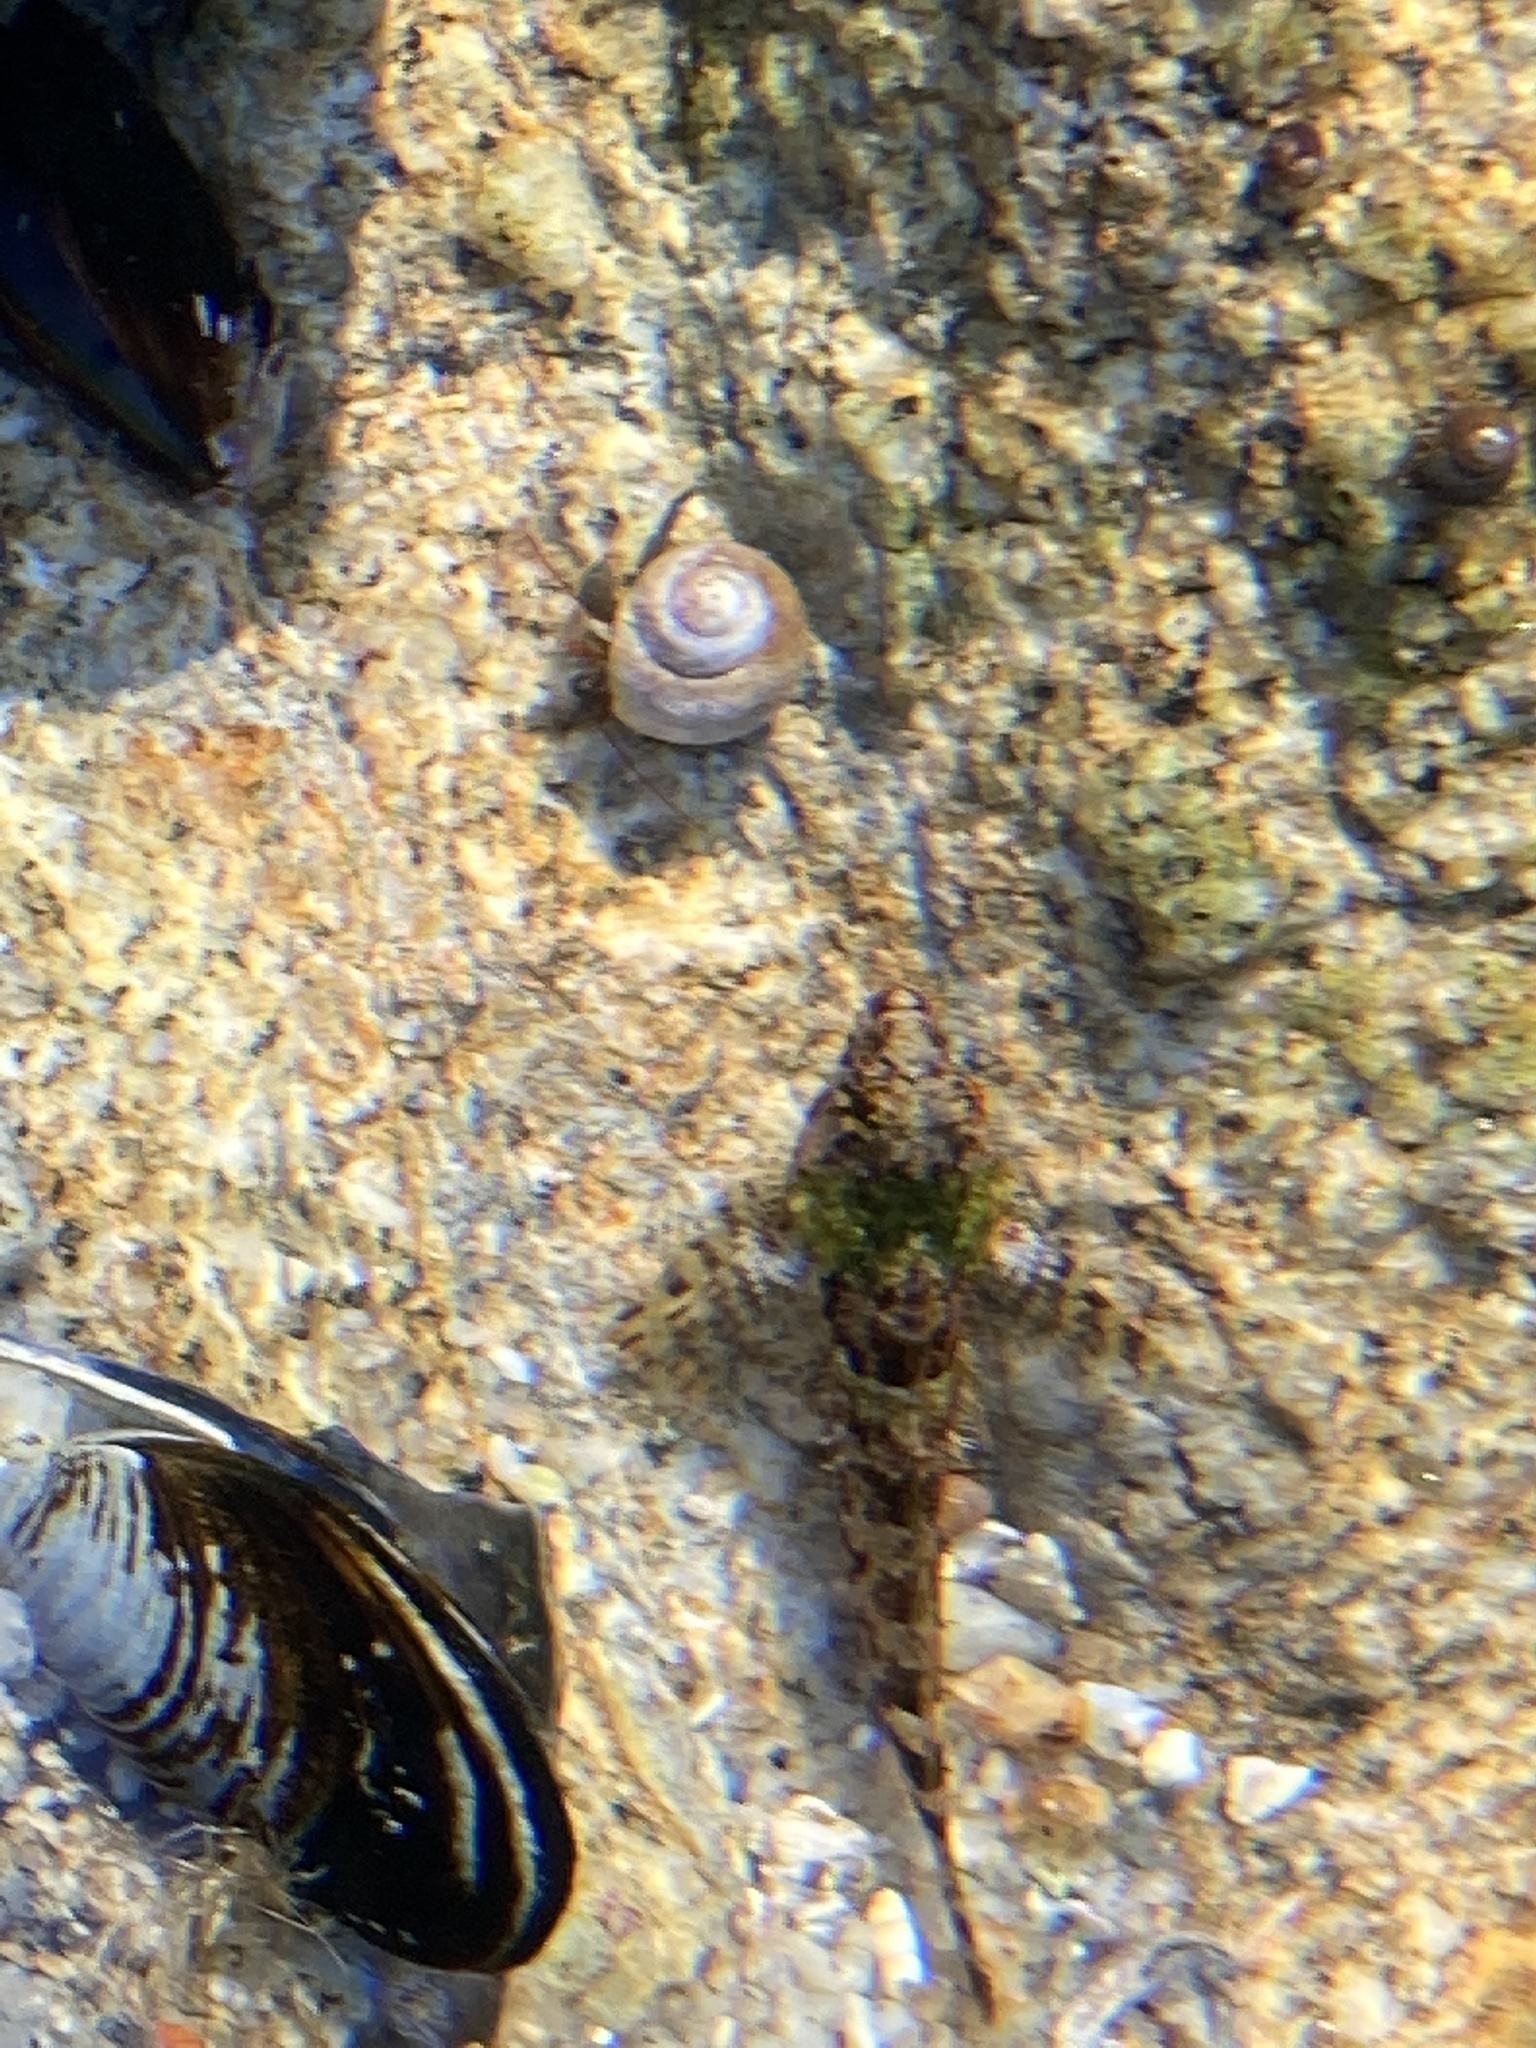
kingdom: Animalia
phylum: Chordata
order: Scorpaeniformes
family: Cottidae
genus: Clinocottus
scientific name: Clinocottus analis
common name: Woolly sculpin
